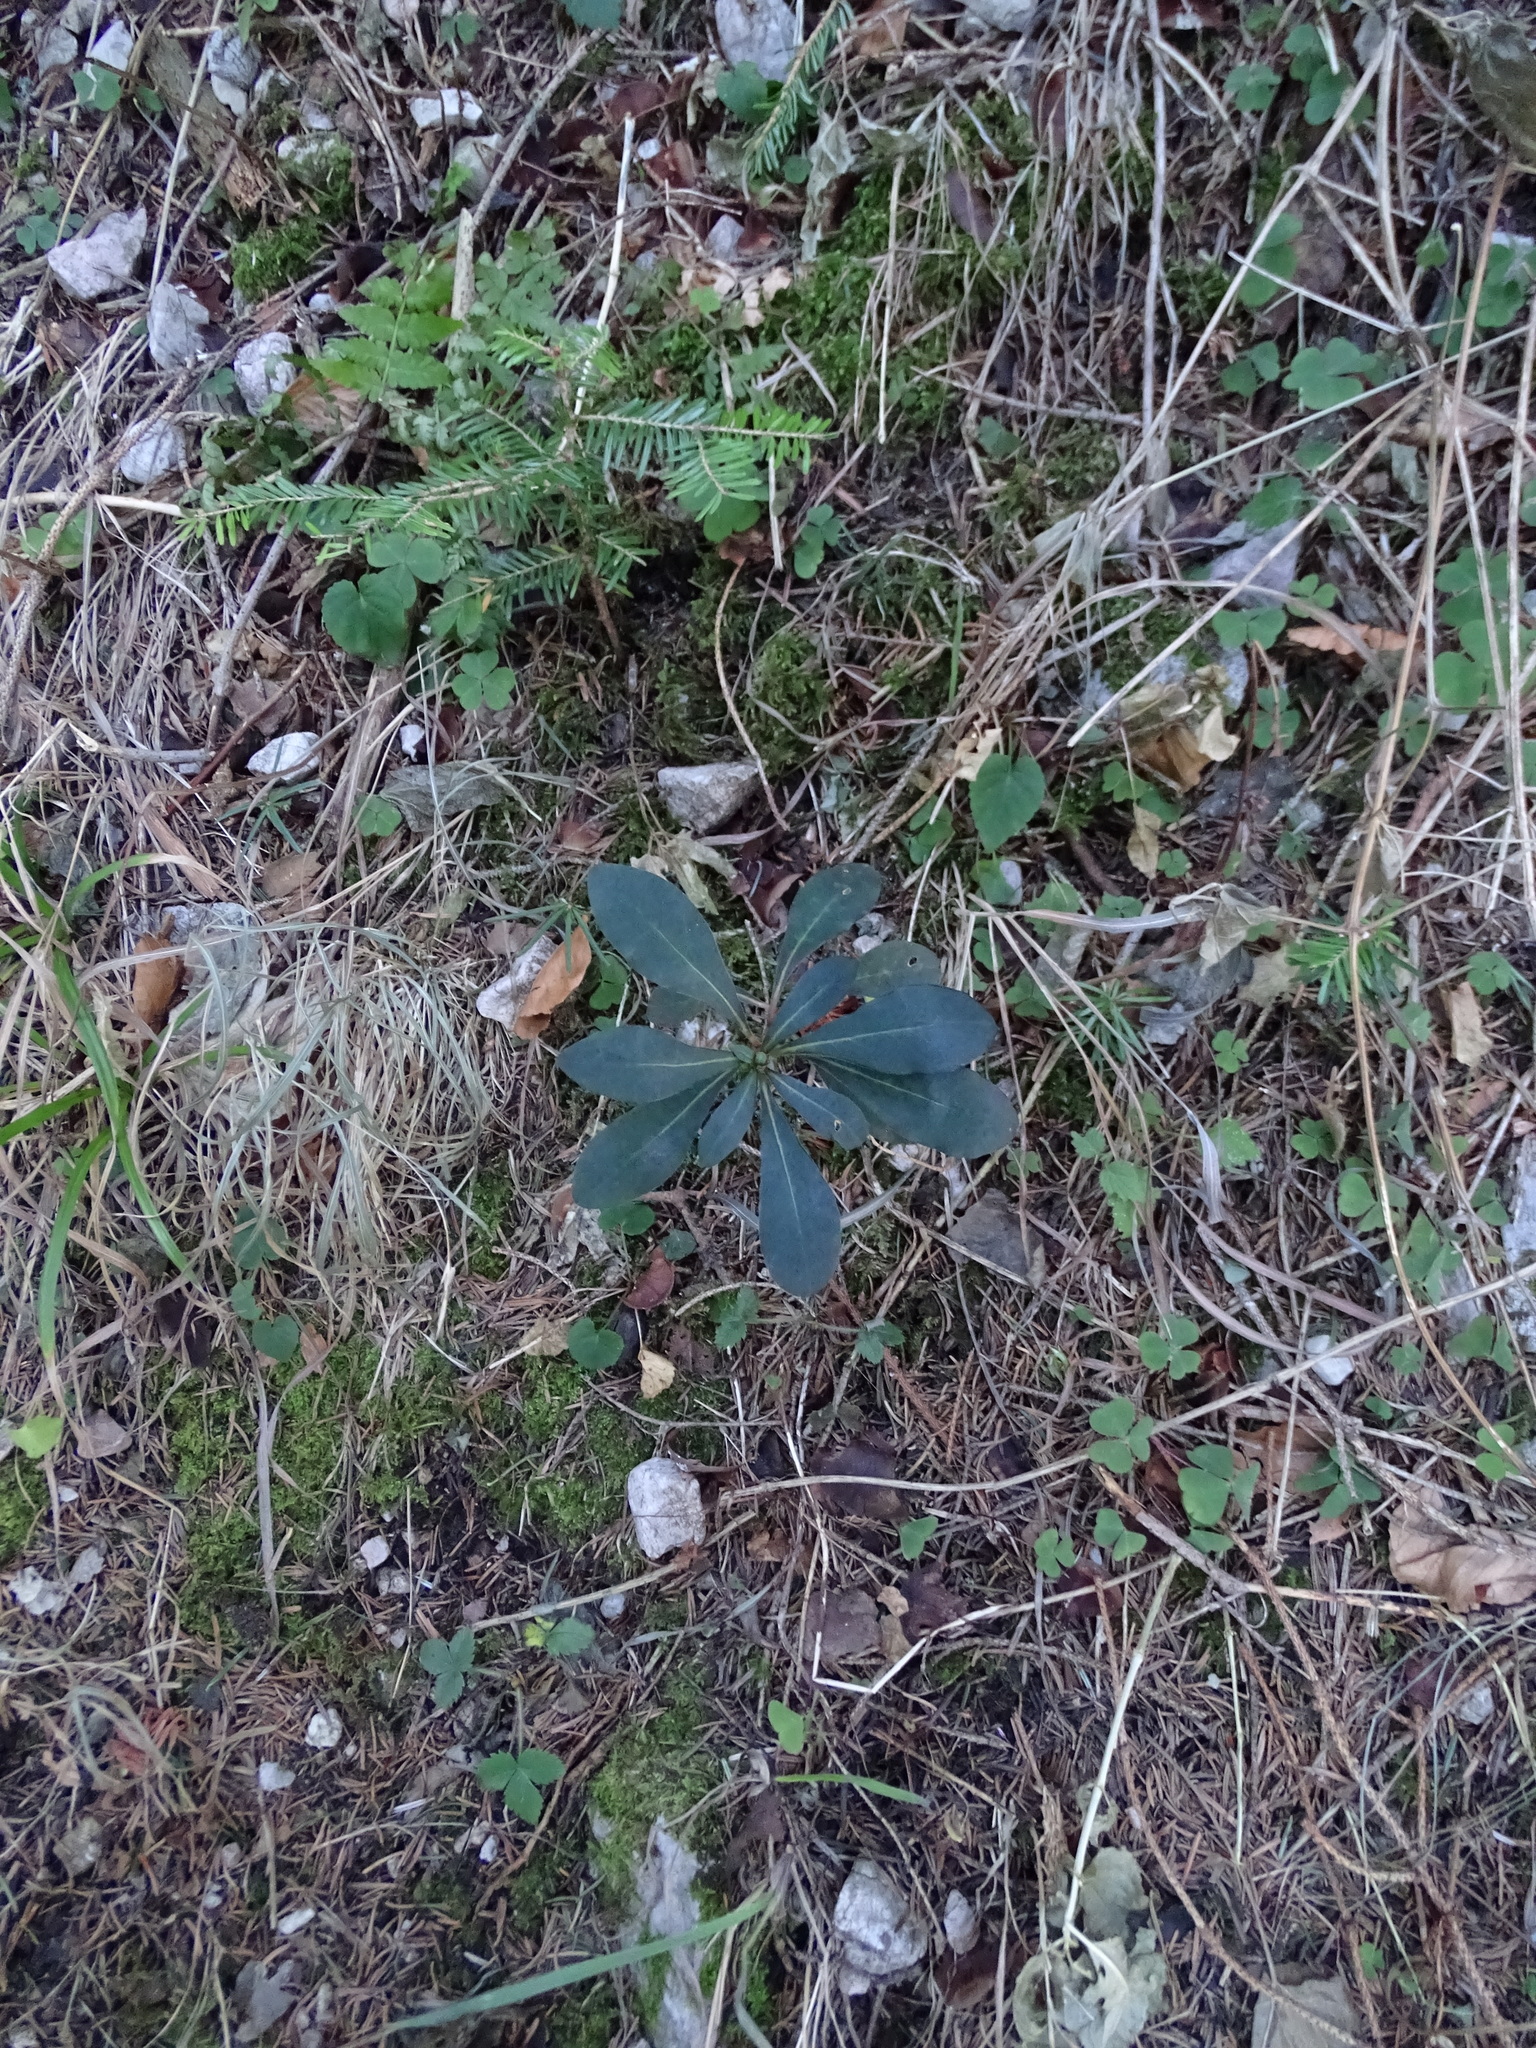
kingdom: Plantae
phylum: Tracheophyta
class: Magnoliopsida
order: Malpighiales
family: Euphorbiaceae
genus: Euphorbia
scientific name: Euphorbia amygdaloides
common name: Wood spurge
